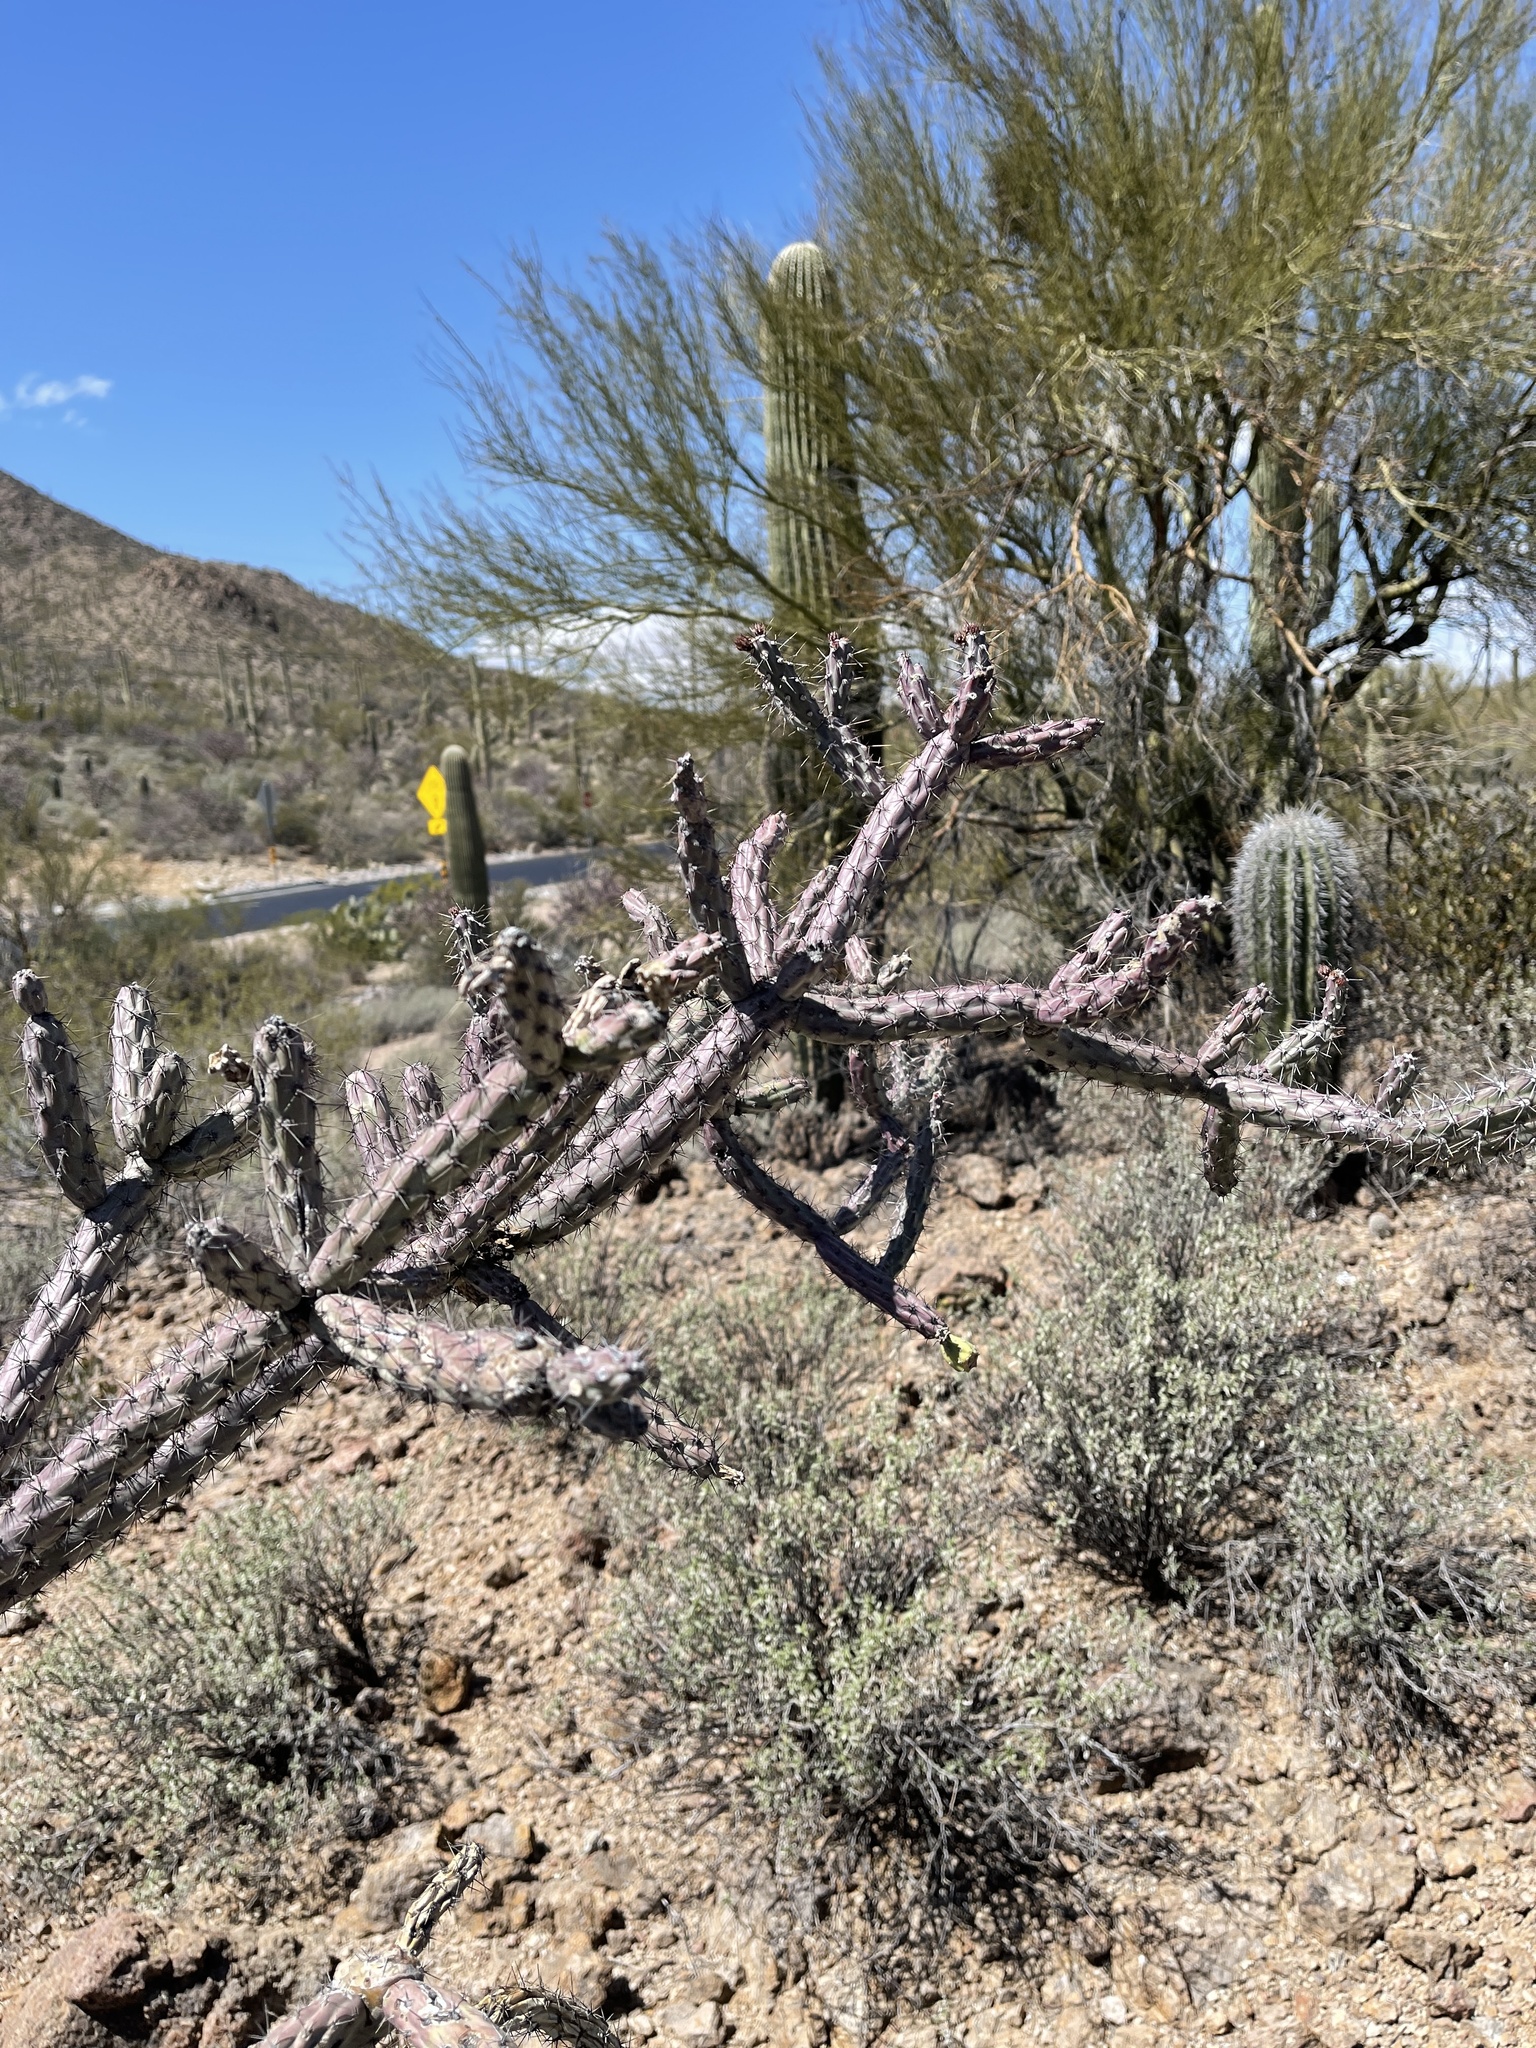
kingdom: Plantae
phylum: Tracheophyta
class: Magnoliopsida
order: Caryophyllales
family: Cactaceae
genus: Cylindropuntia
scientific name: Cylindropuntia thurberi
